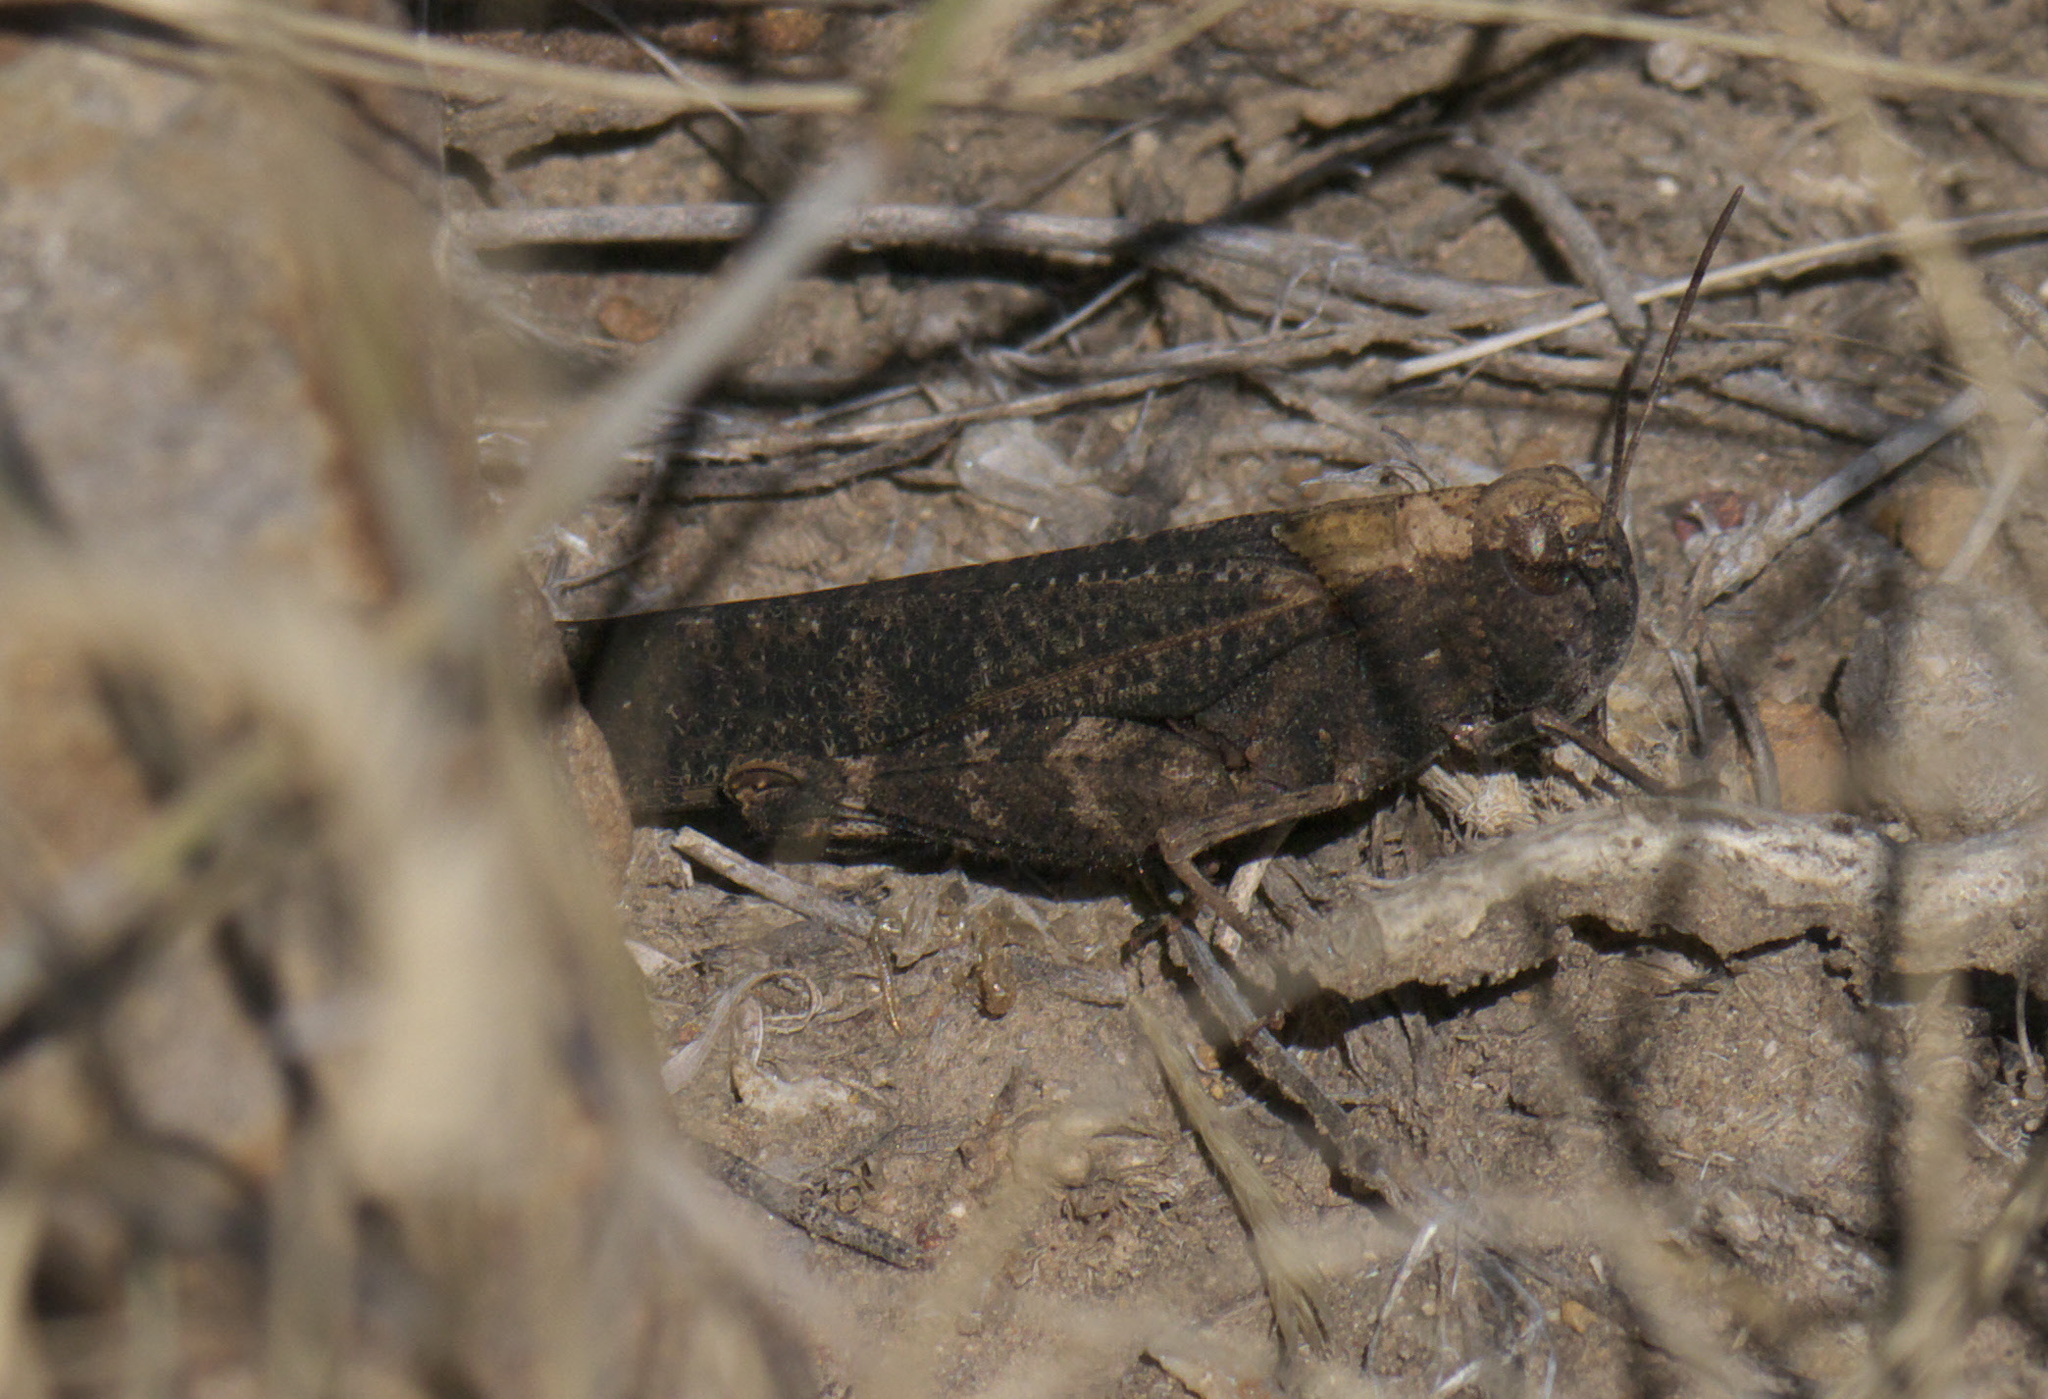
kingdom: Animalia
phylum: Arthropoda
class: Insecta
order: Orthoptera
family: Acrididae
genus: Arphia
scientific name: Arphia pseudo-nietana
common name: Red-winged grasshopper
